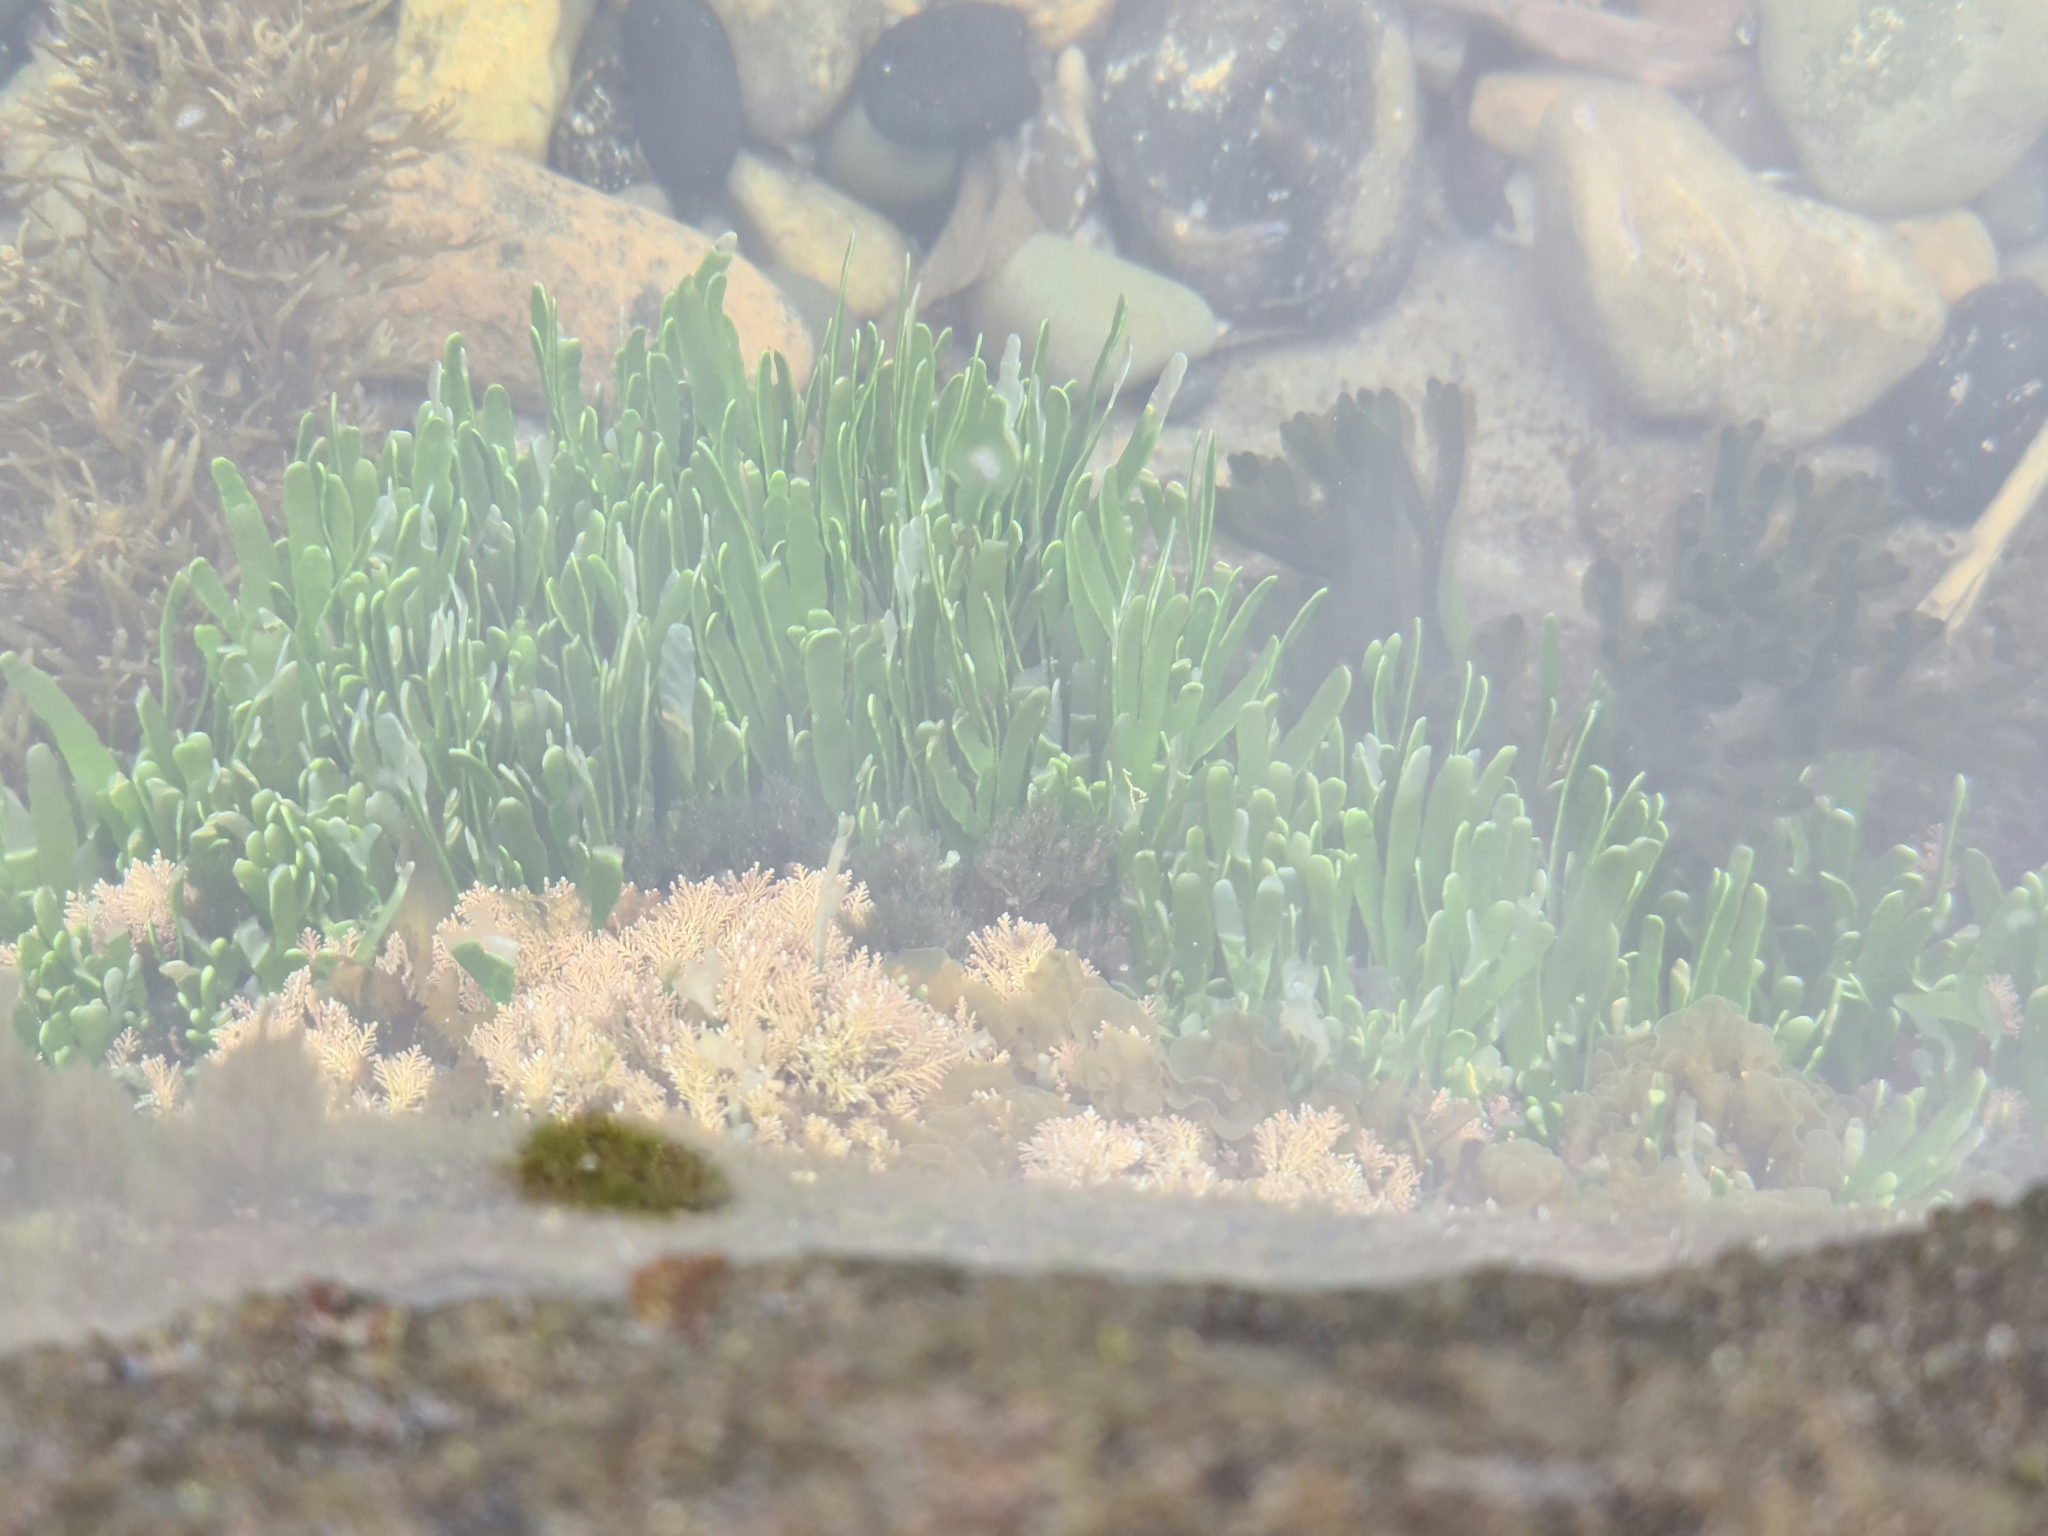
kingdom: Plantae
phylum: Chlorophyta
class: Ulvophyceae
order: Bryopsidales
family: Caulerpaceae
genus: Caulerpa
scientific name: Caulerpa filiformis
